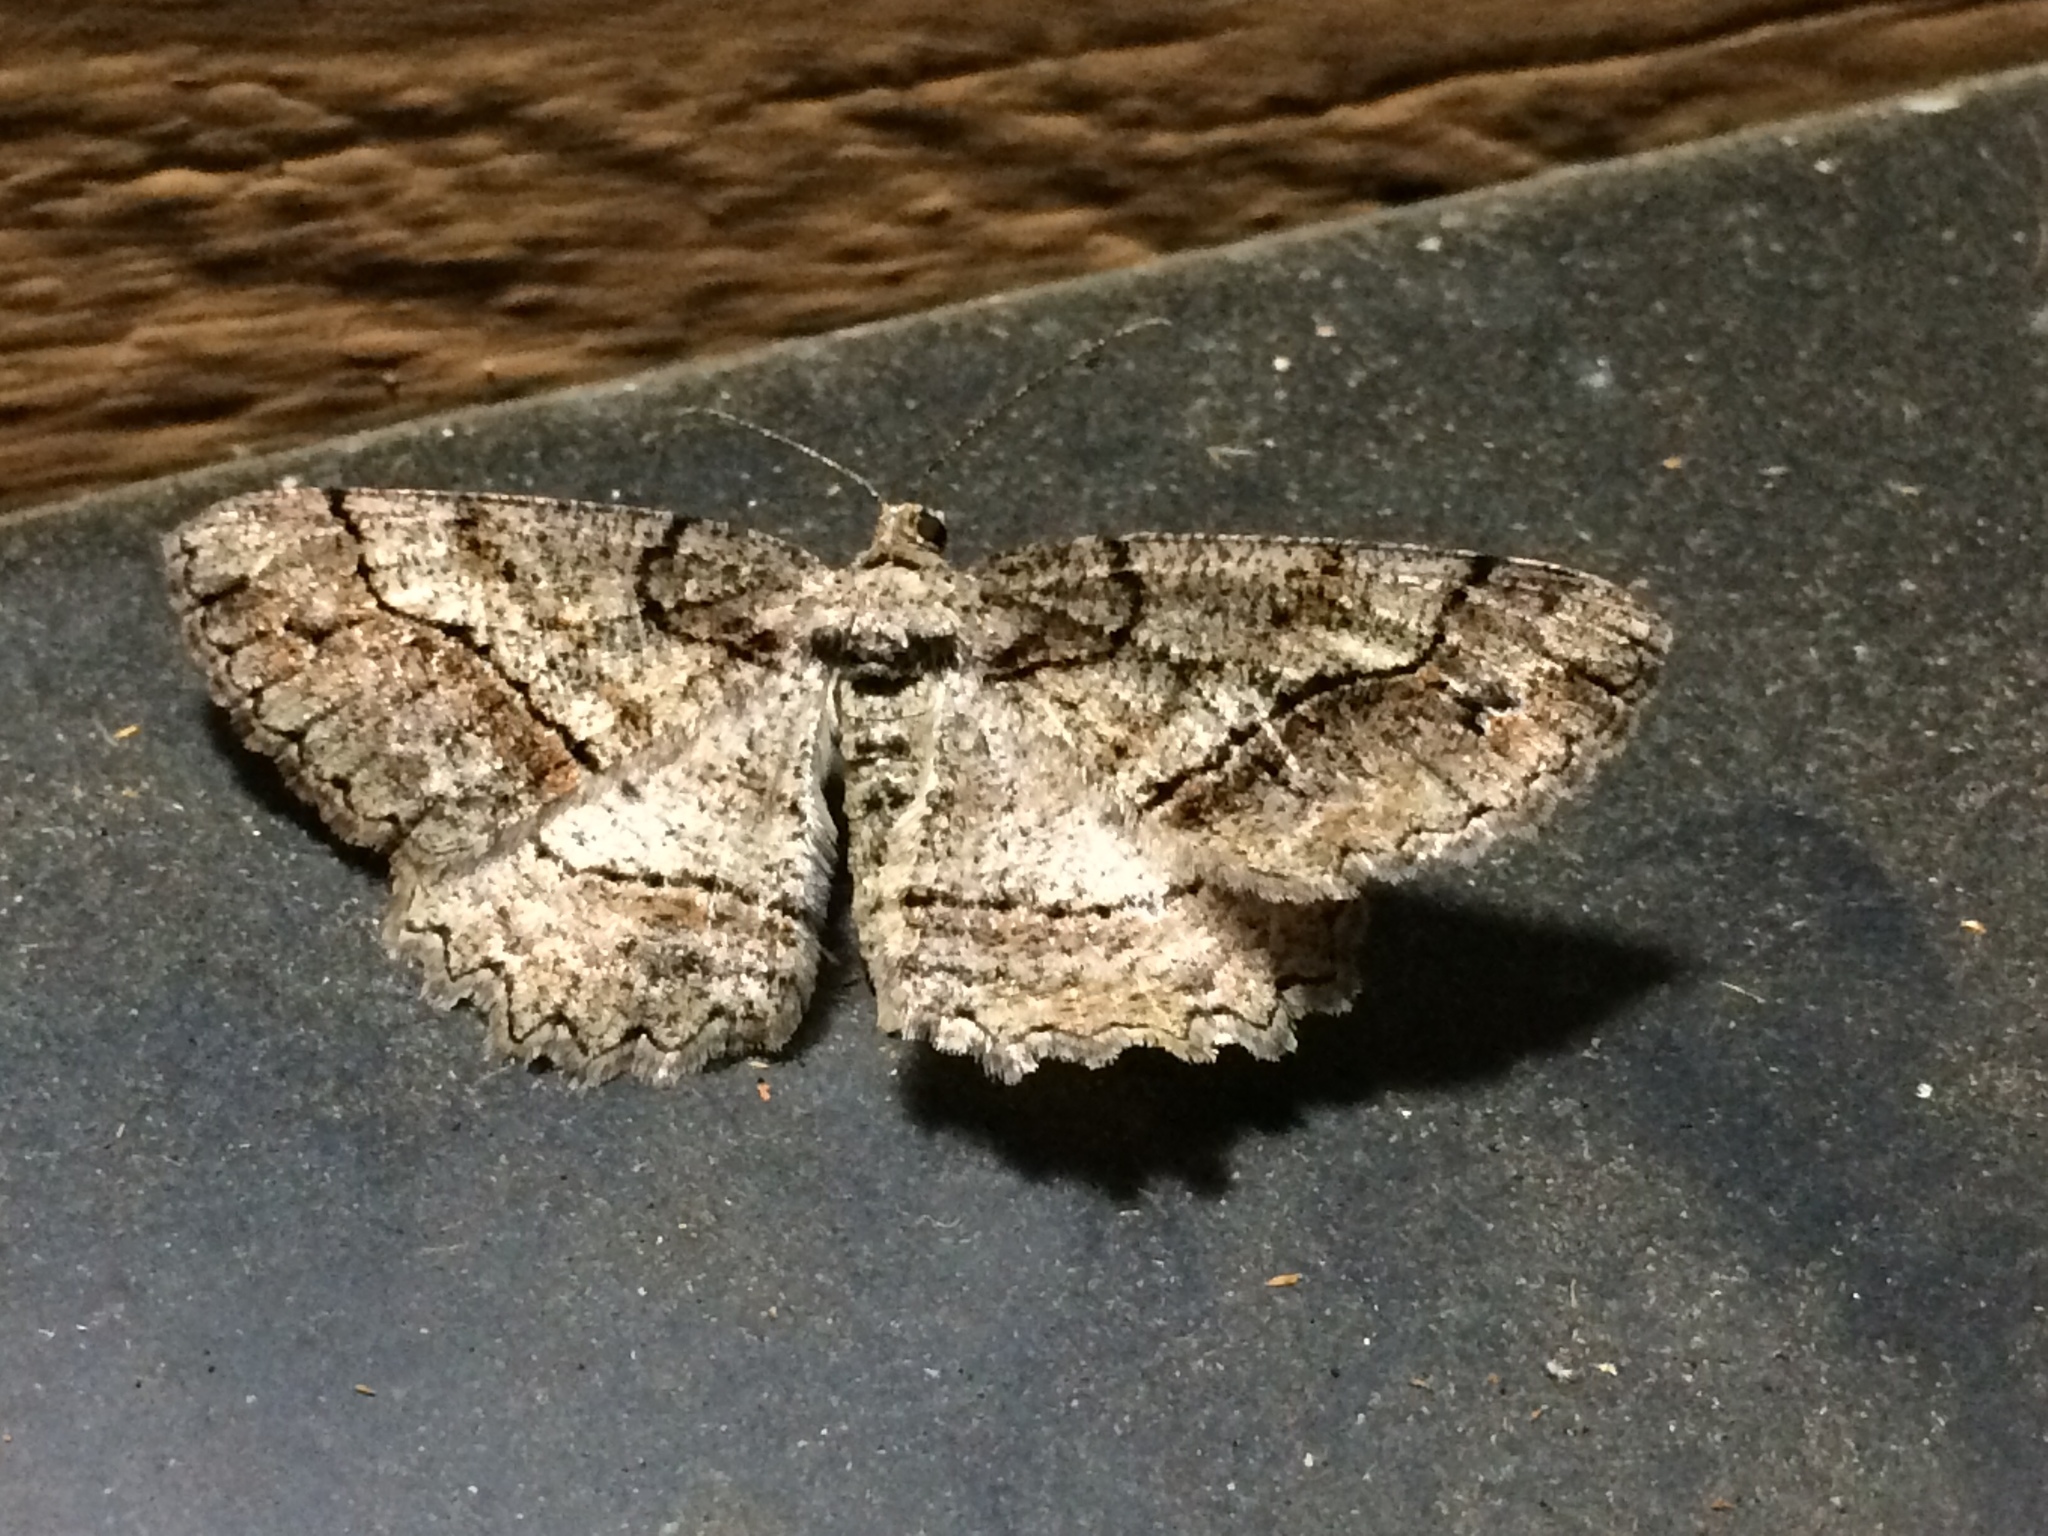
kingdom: Animalia
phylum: Arthropoda
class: Insecta
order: Lepidoptera
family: Geometridae
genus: Neoalcis
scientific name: Neoalcis californiaria
